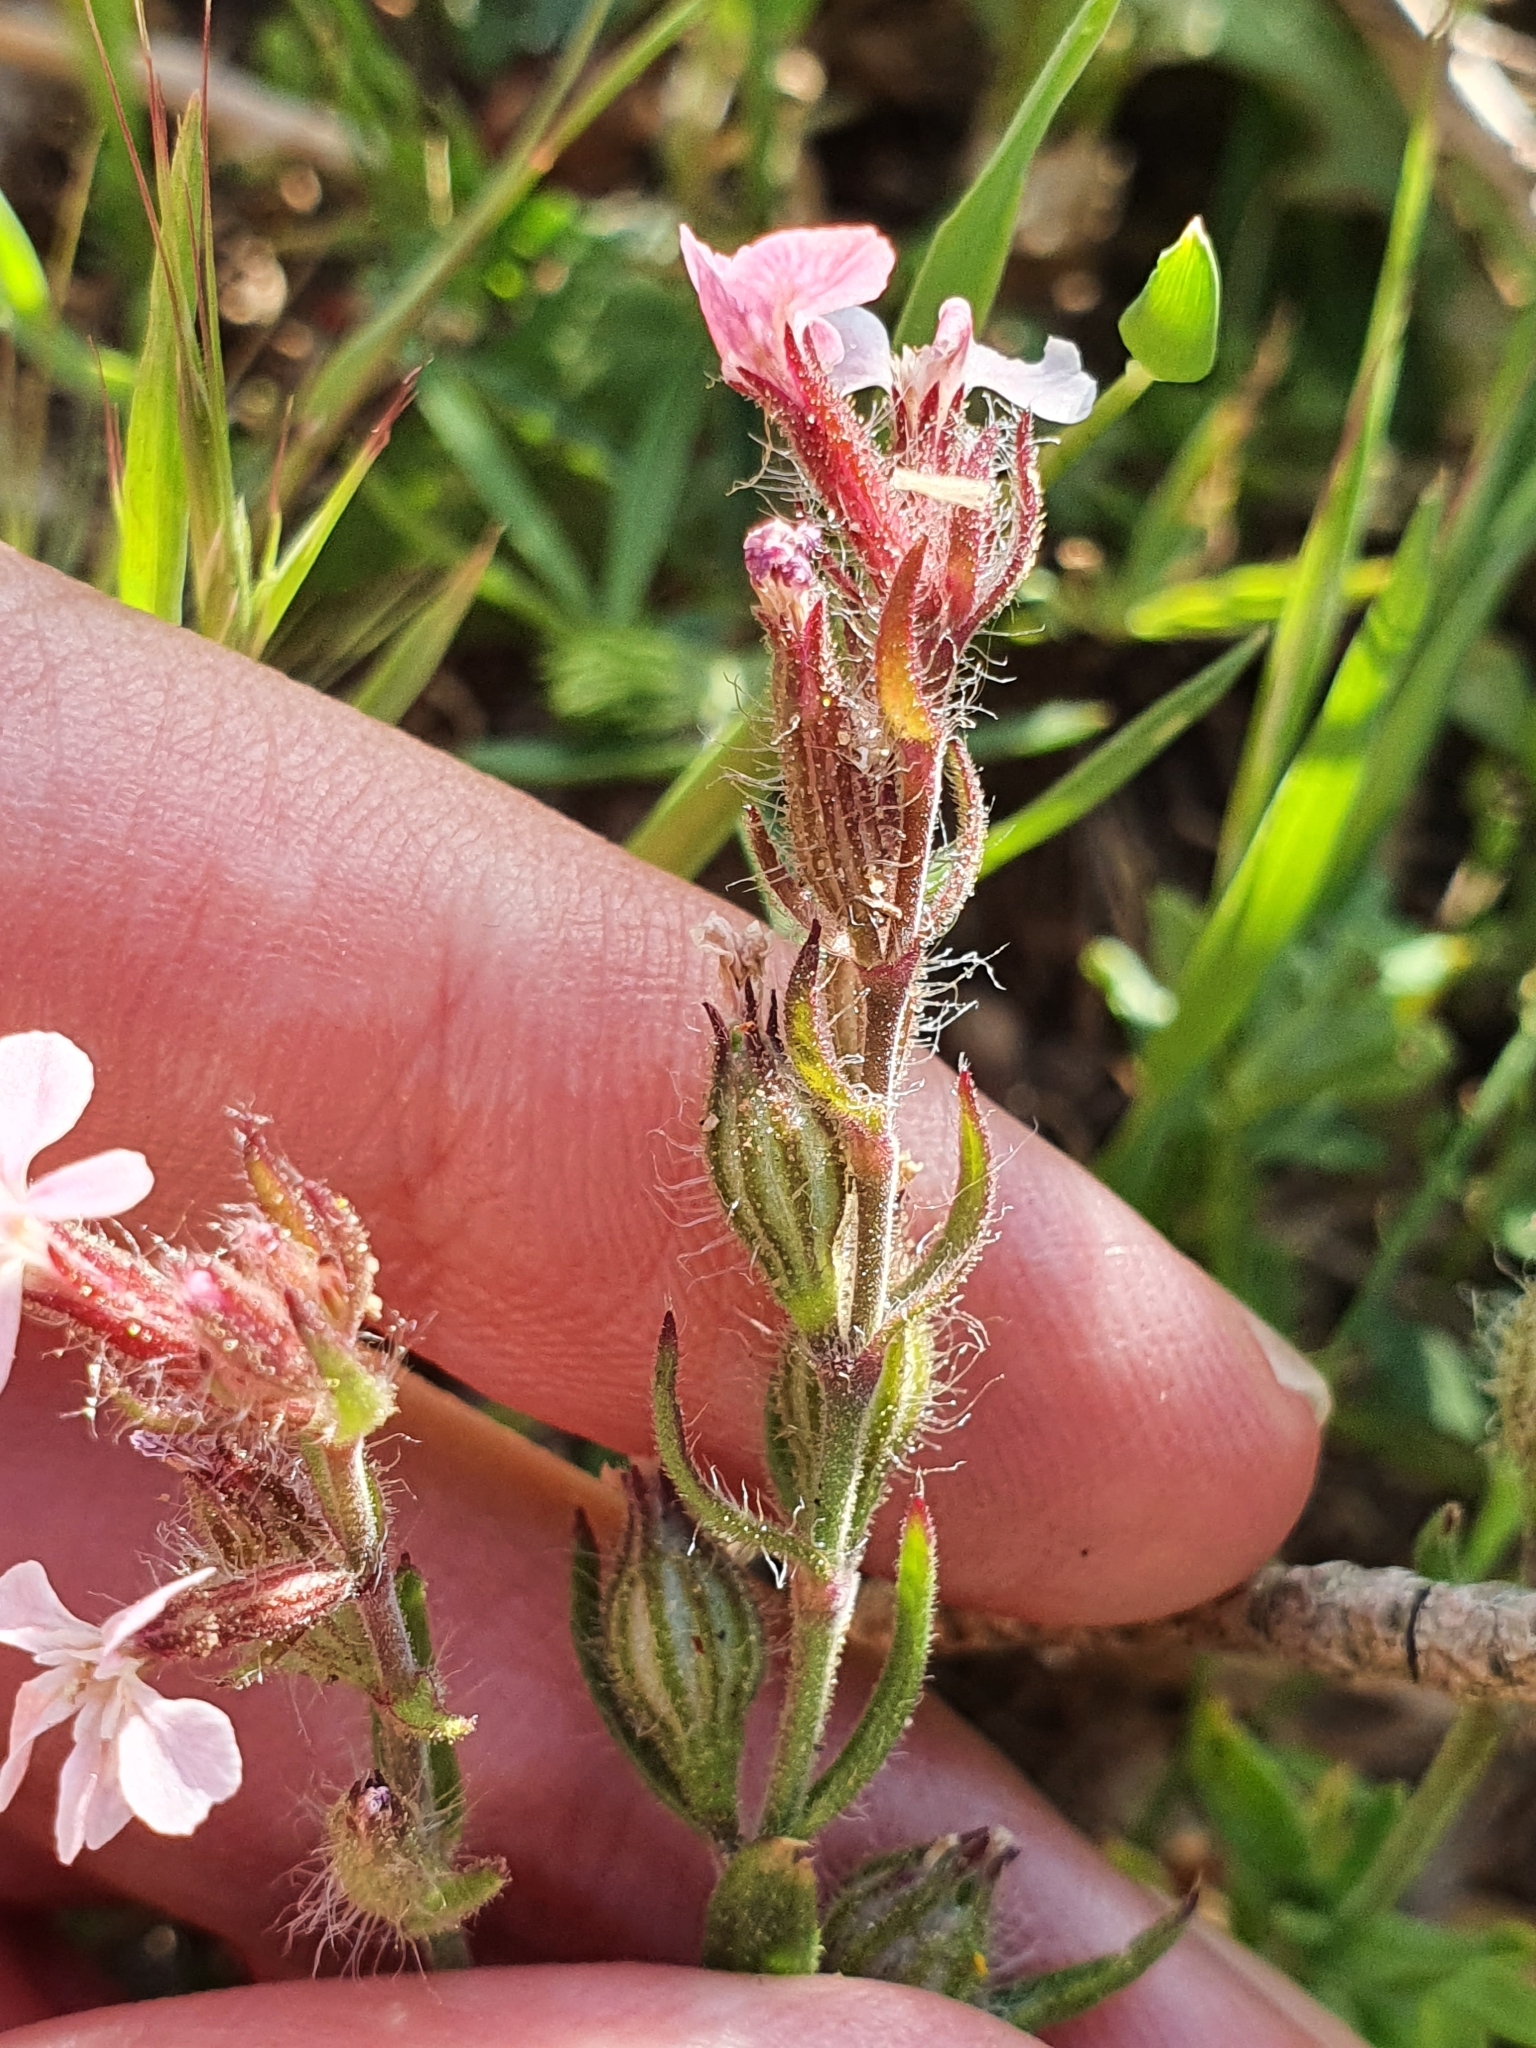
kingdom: Plantae
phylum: Tracheophyta
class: Magnoliopsida
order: Caryophyllales
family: Caryophyllaceae
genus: Silene
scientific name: Silene gallica
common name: Small-flowered catchfly
